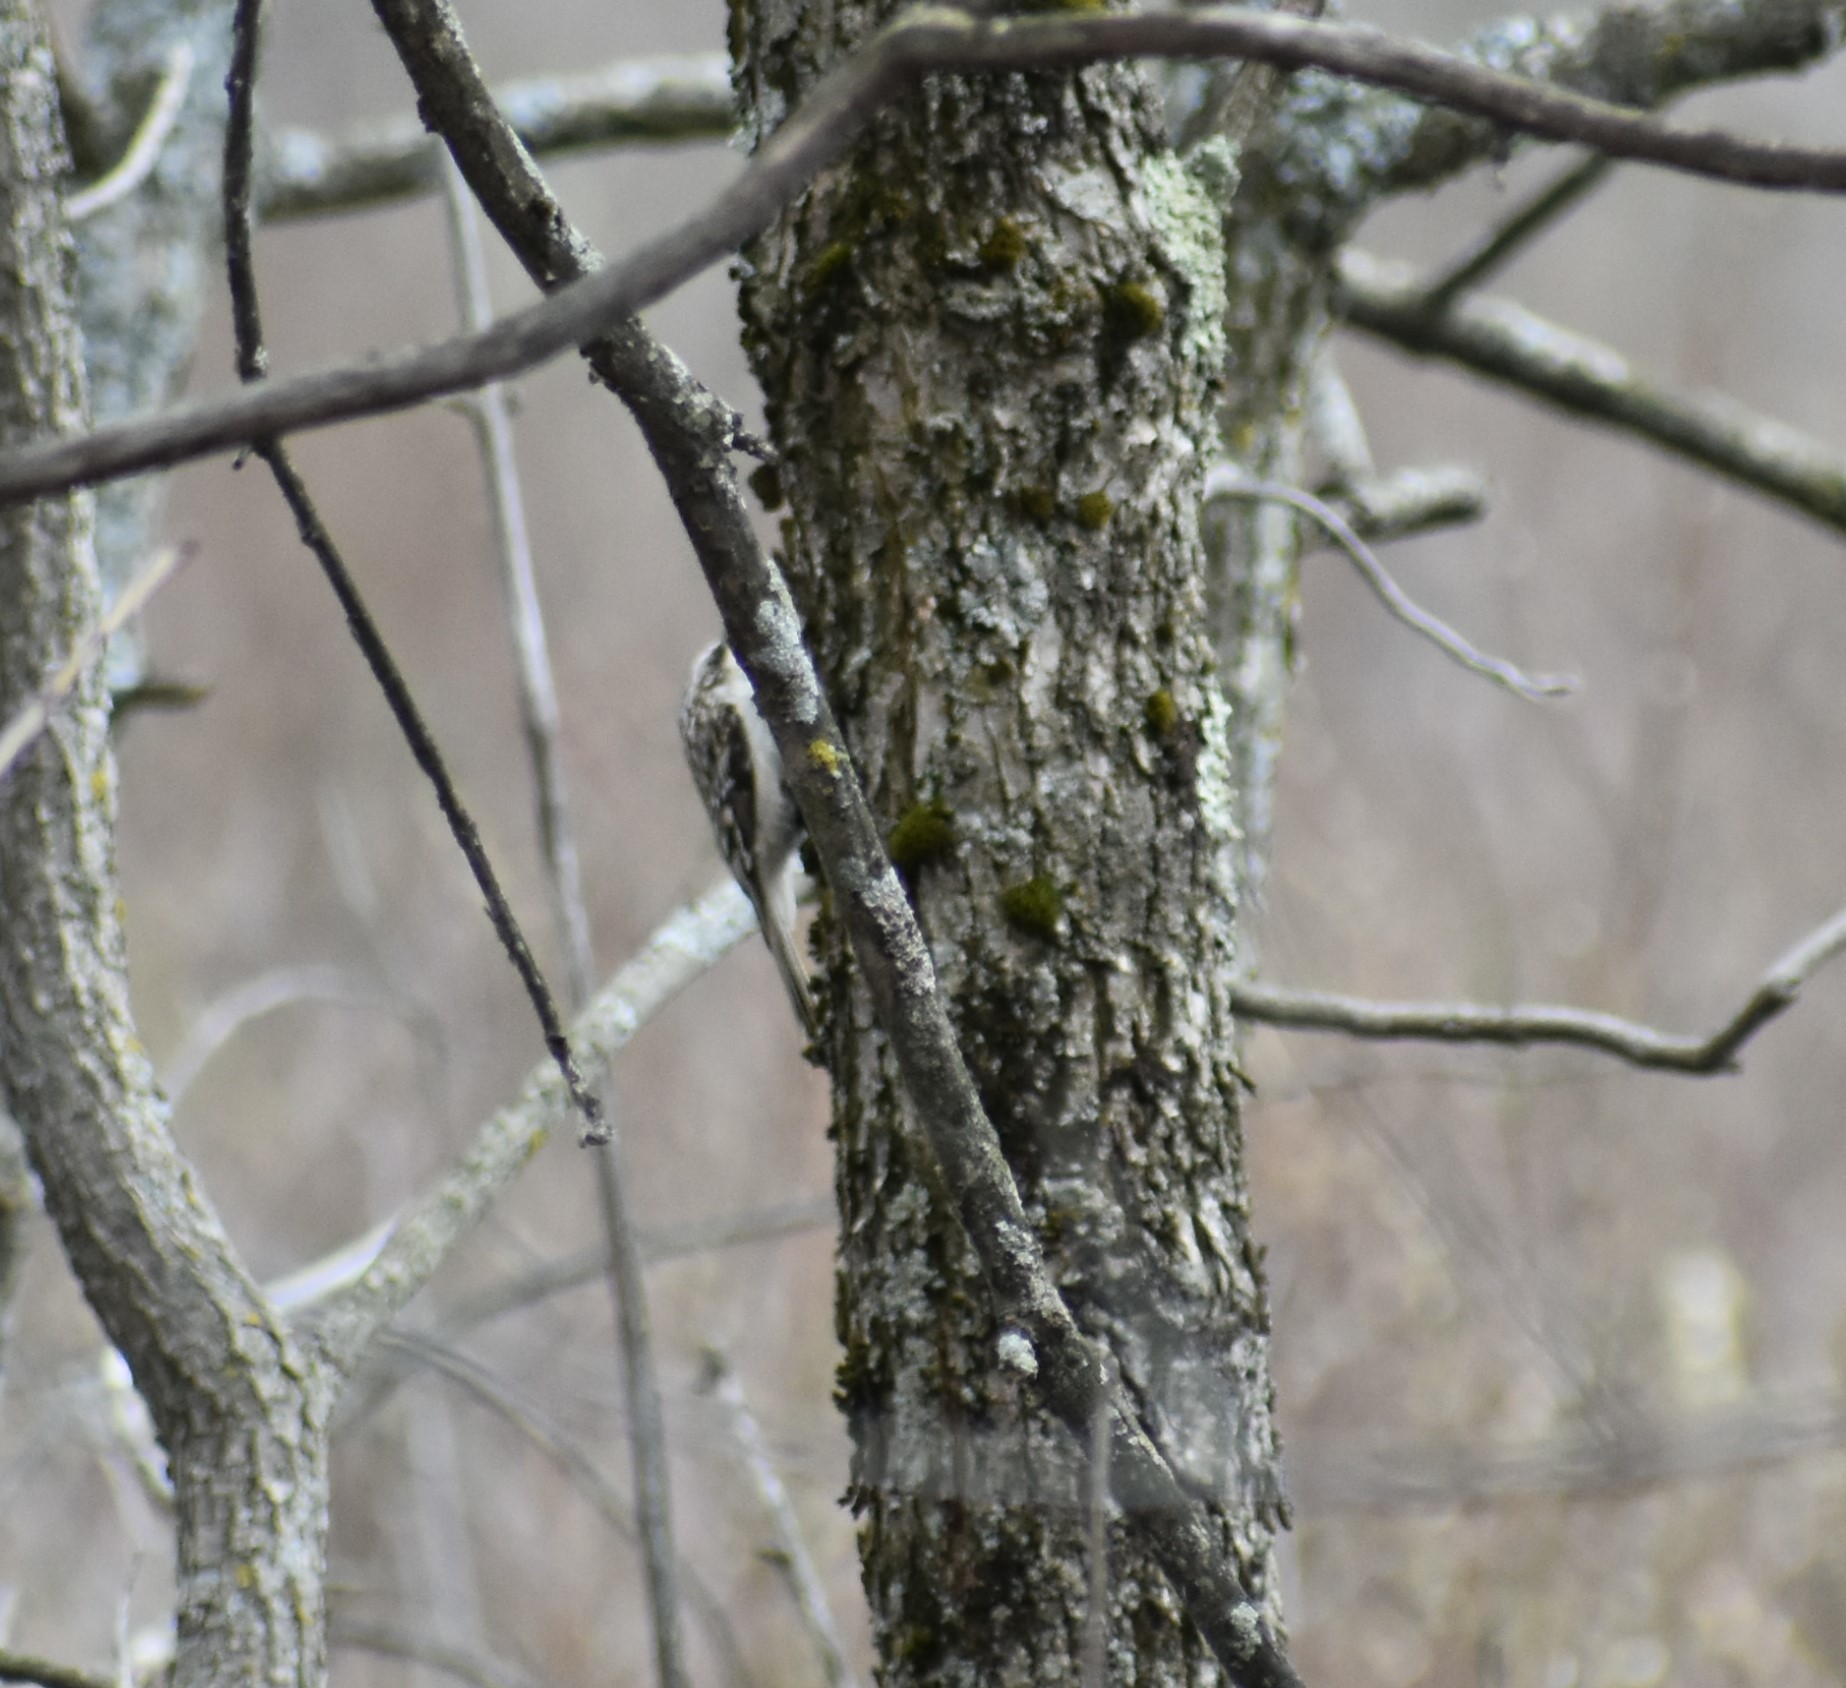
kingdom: Animalia
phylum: Chordata
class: Aves
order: Passeriformes
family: Certhiidae
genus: Certhia
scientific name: Certhia americana
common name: Brown creeper
